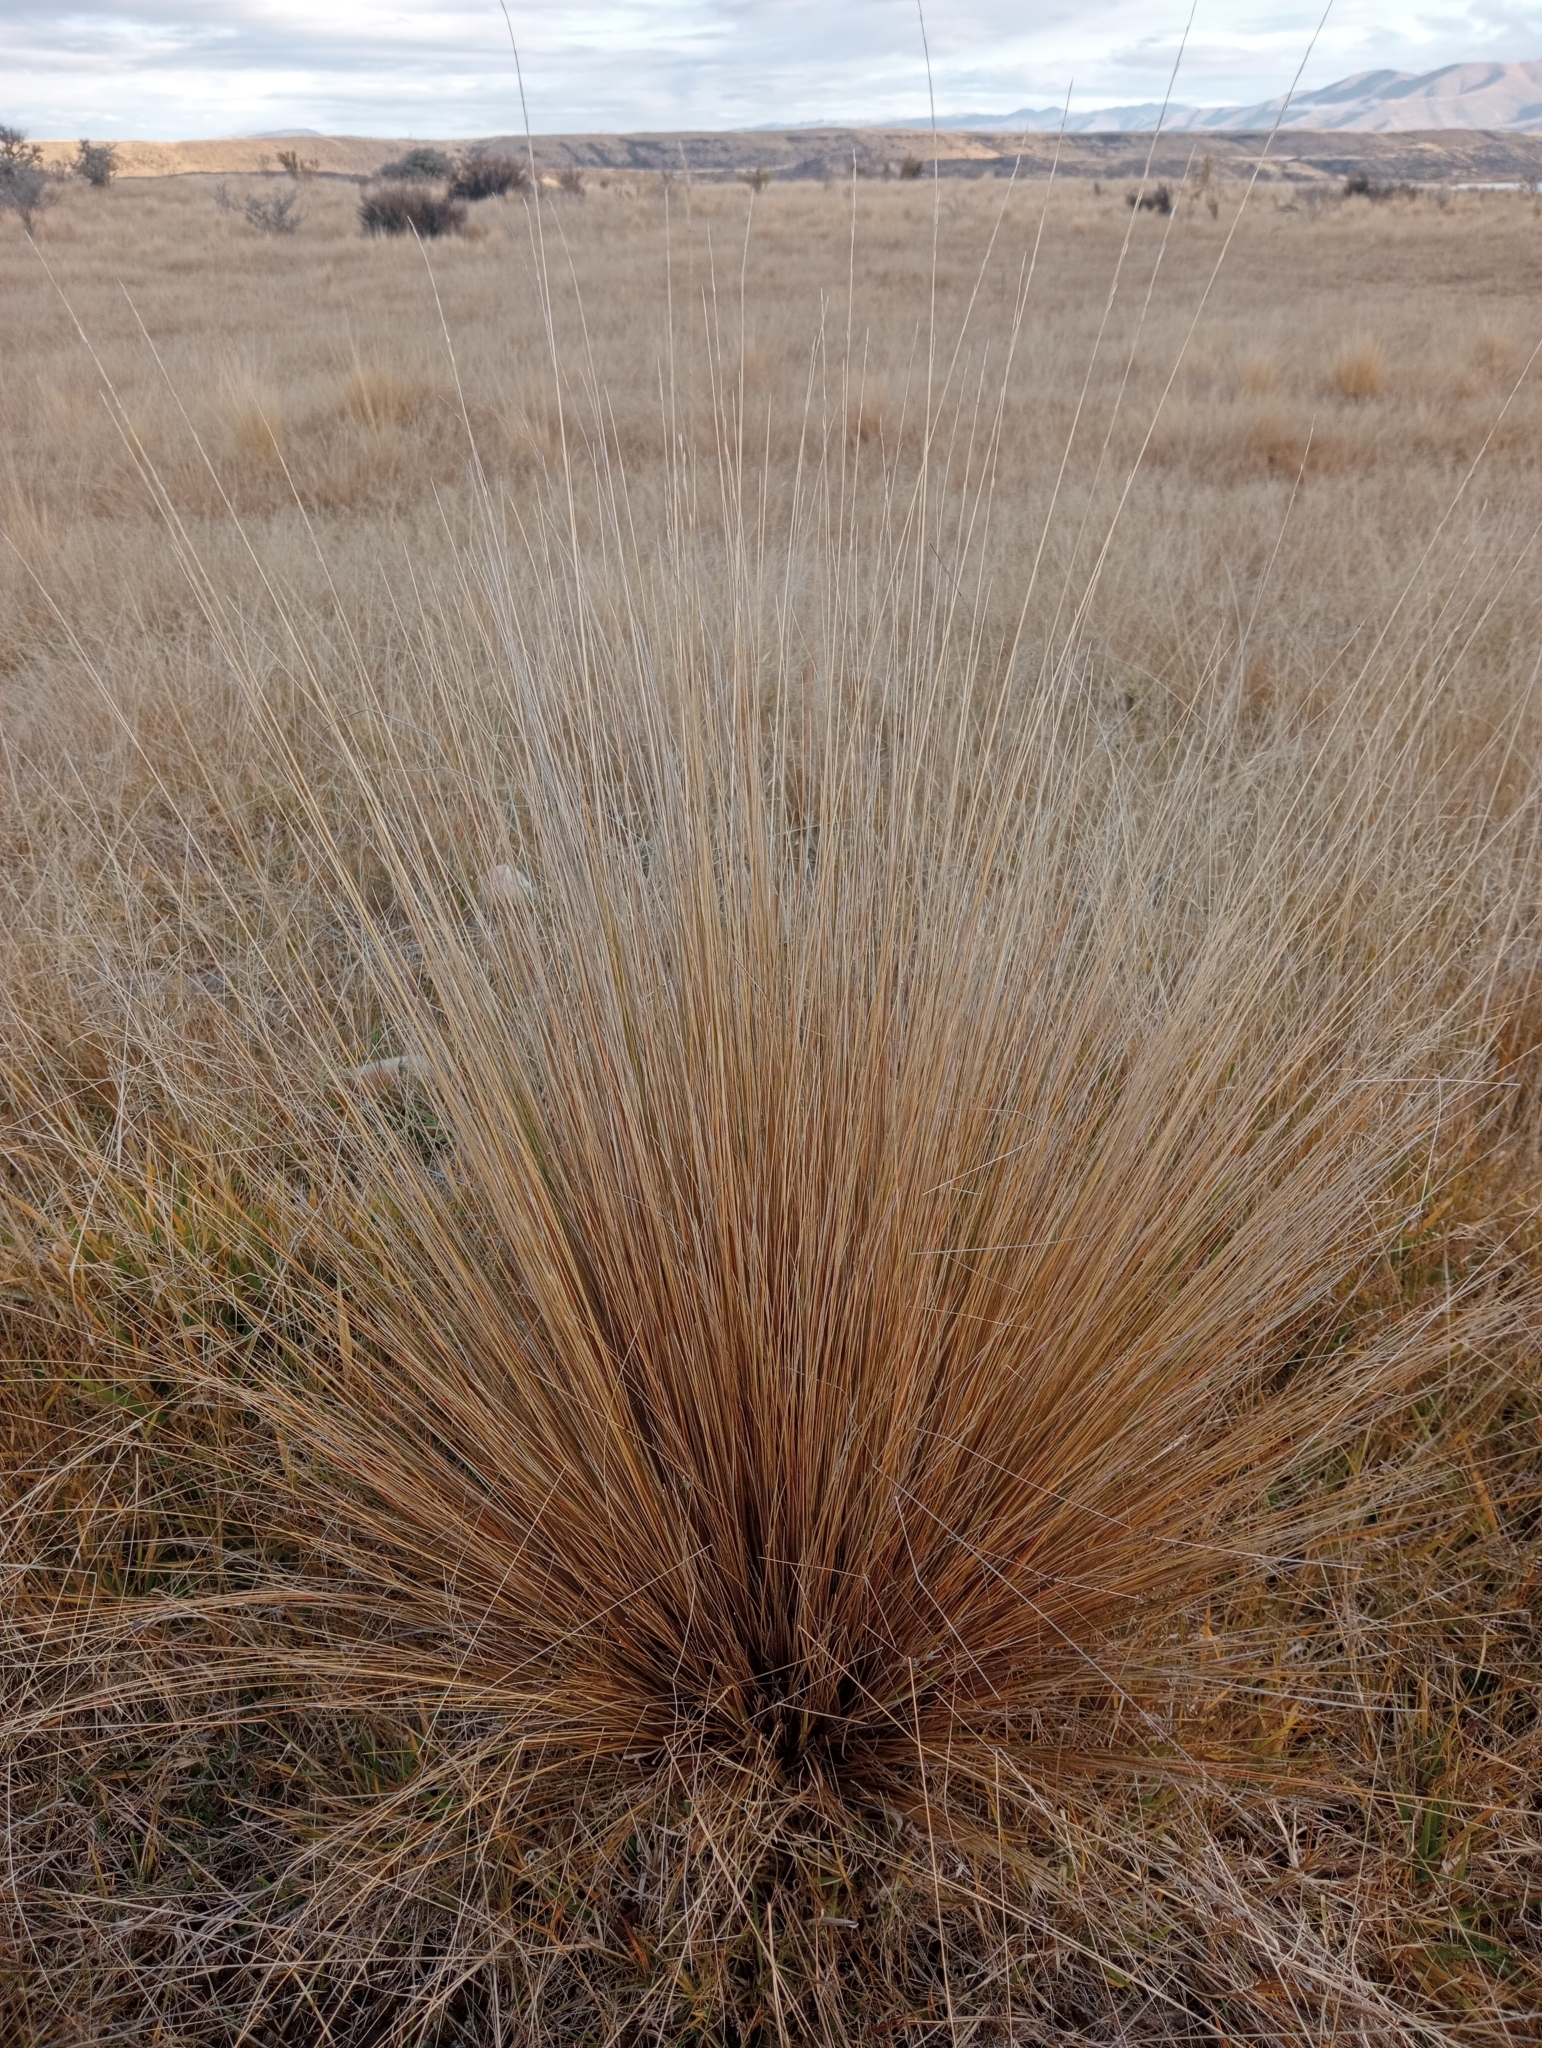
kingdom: Plantae
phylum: Tracheophyta
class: Liliopsida
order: Poales
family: Poaceae
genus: Festuca
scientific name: Festuca novae-zelandiae
